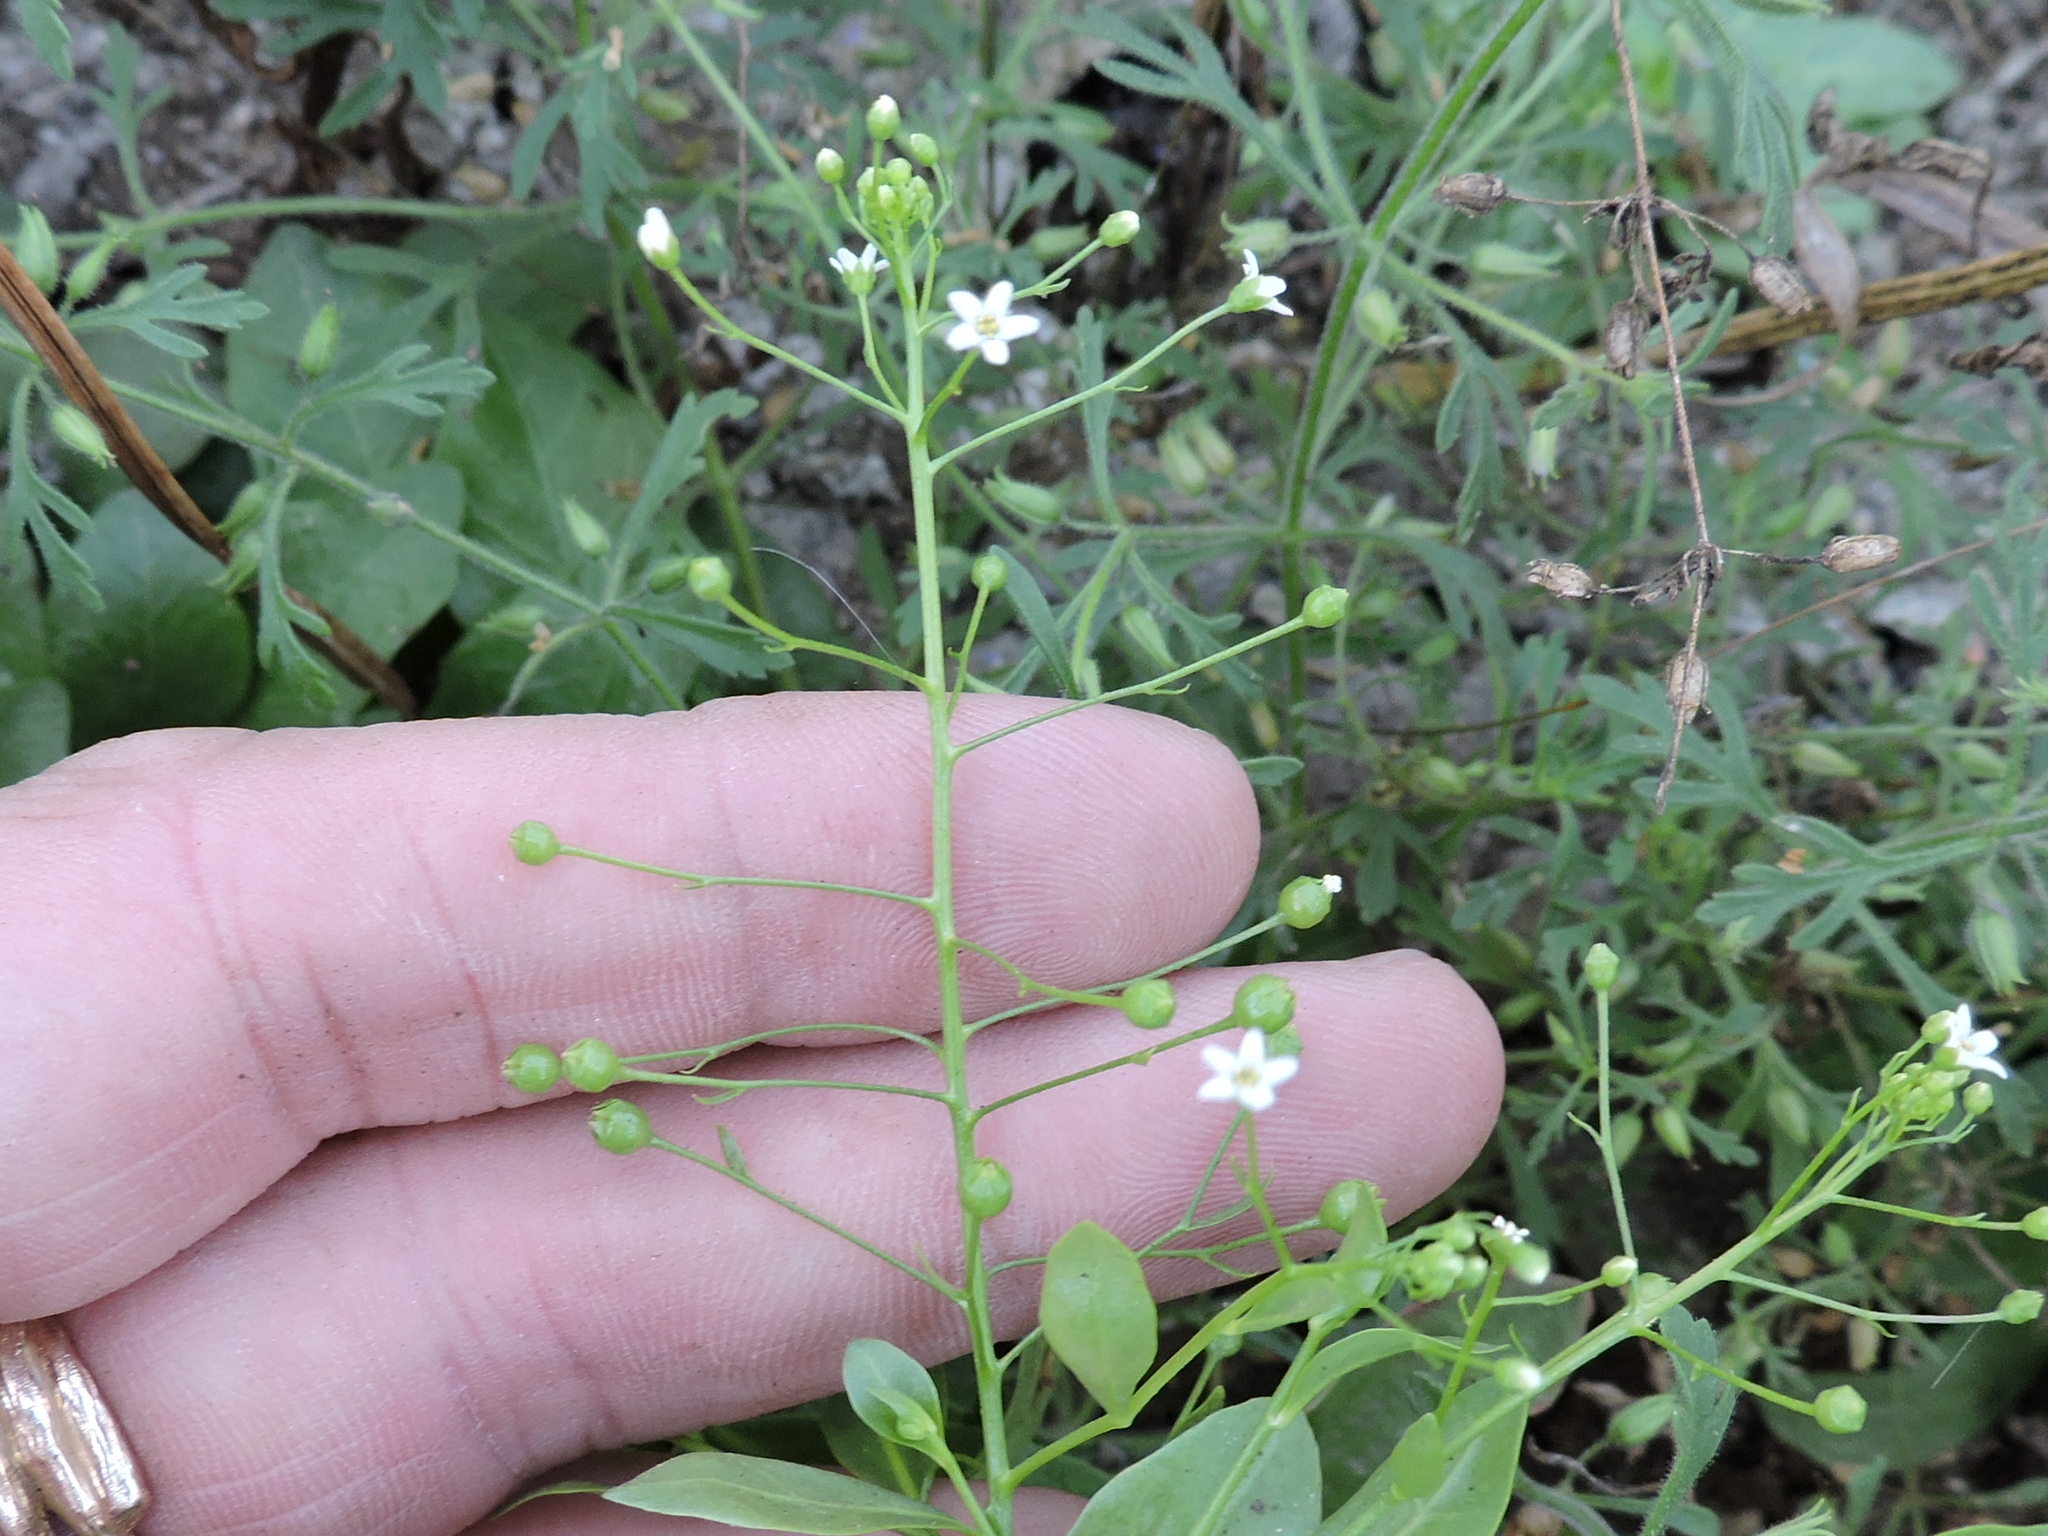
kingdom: Plantae
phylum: Tracheophyta
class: Magnoliopsida
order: Ericales
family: Primulaceae
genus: Samolus
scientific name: Samolus ebracteatus
